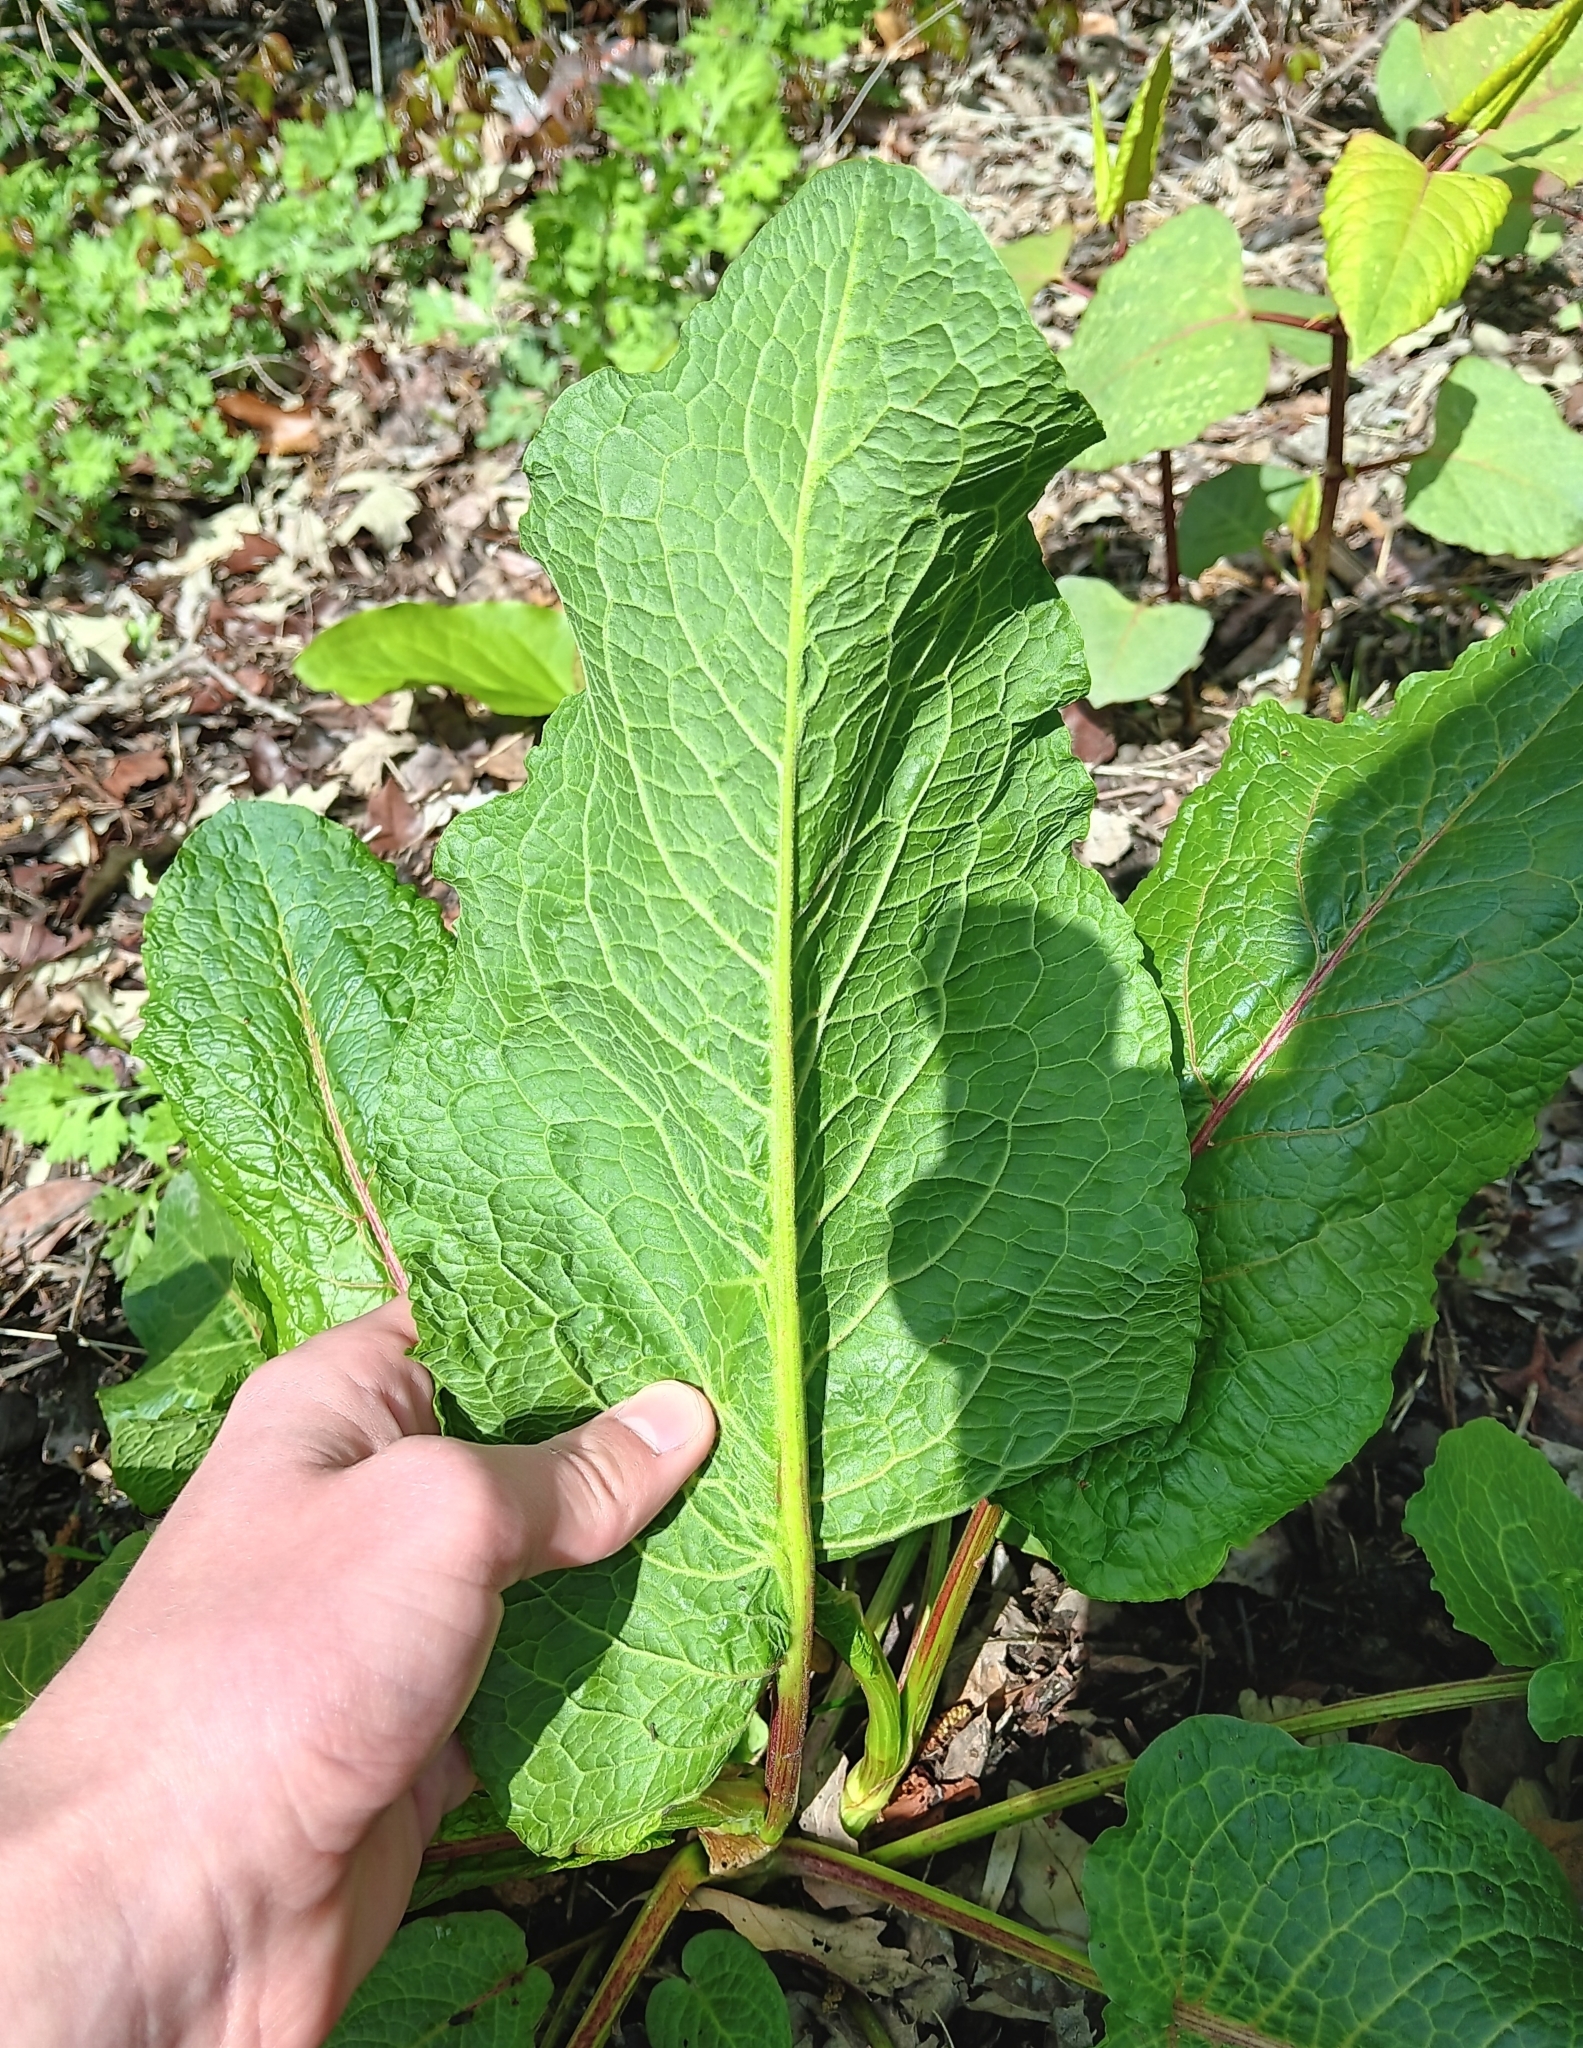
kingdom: Plantae
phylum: Tracheophyta
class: Magnoliopsida
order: Caryophyllales
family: Polygonaceae
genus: Rumex
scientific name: Rumex obtusifolius
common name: Bitter dock
